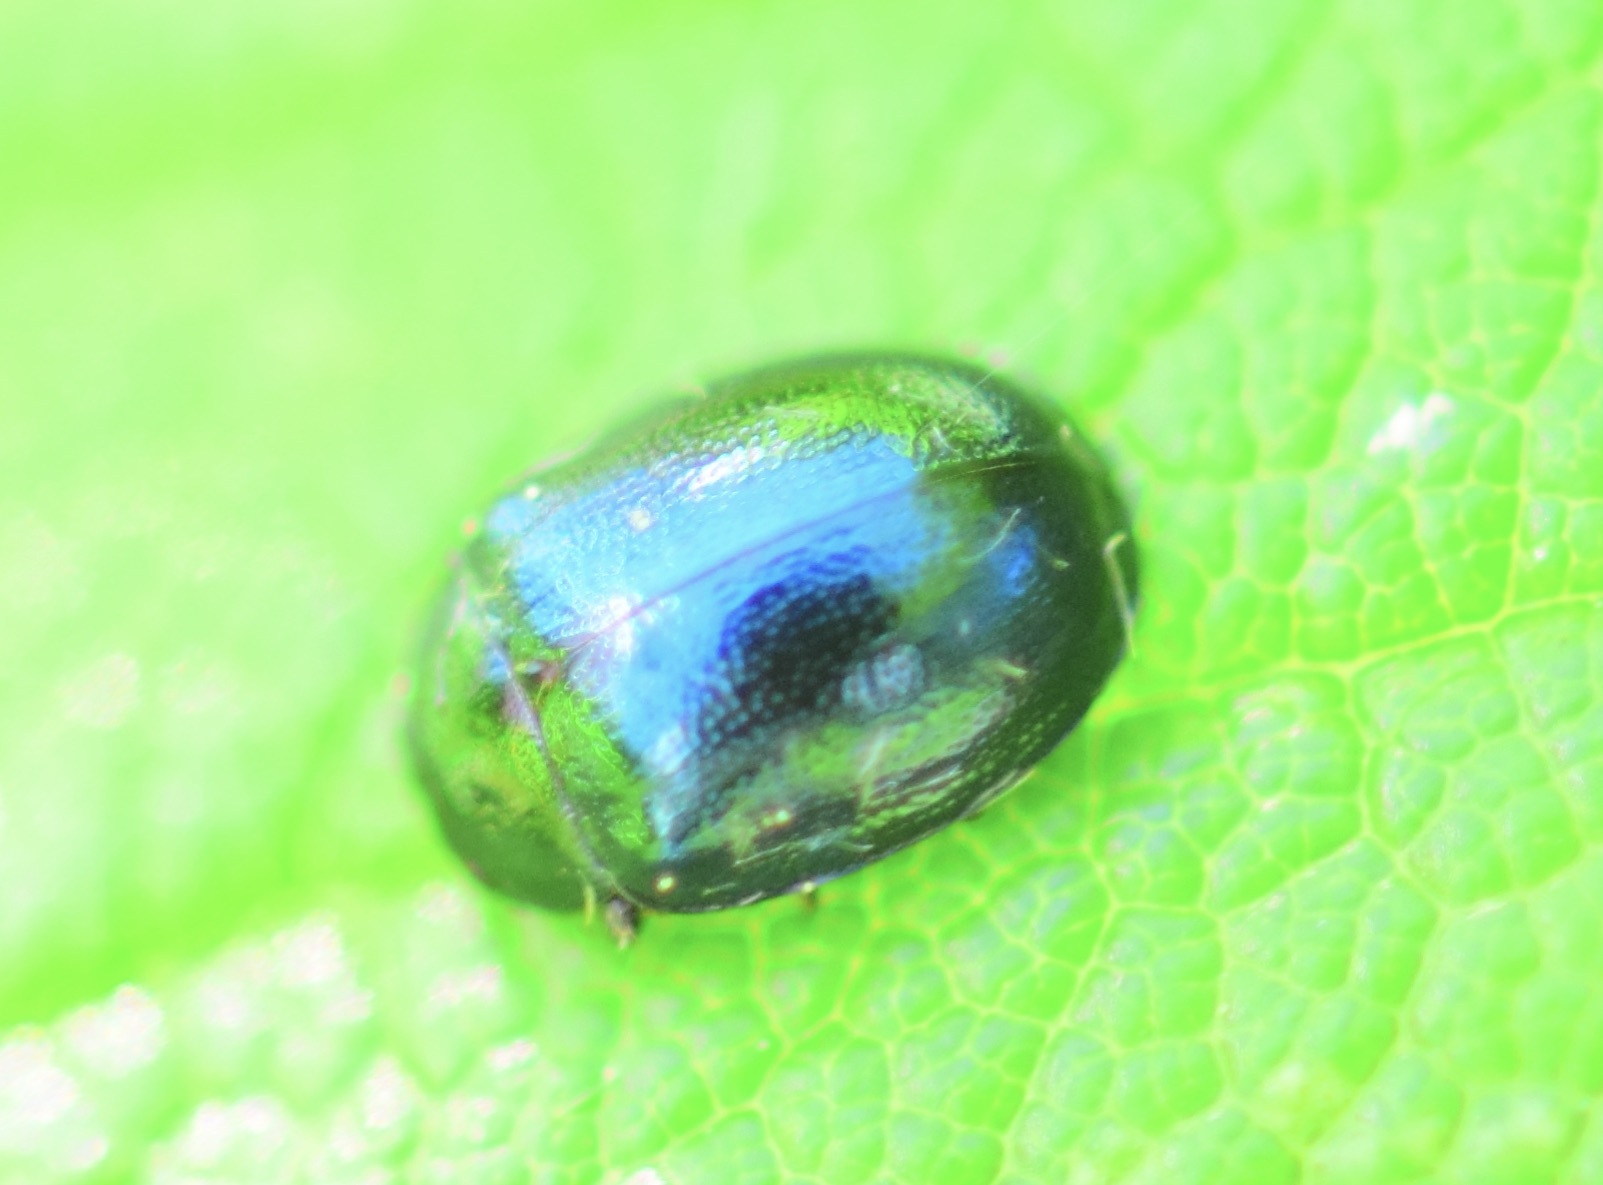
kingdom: Animalia
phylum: Arthropoda
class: Insecta
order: Coleoptera
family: Chrysomelidae
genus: Plagiodera
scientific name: Plagiodera versicolora
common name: Imported willow leaf beetle
